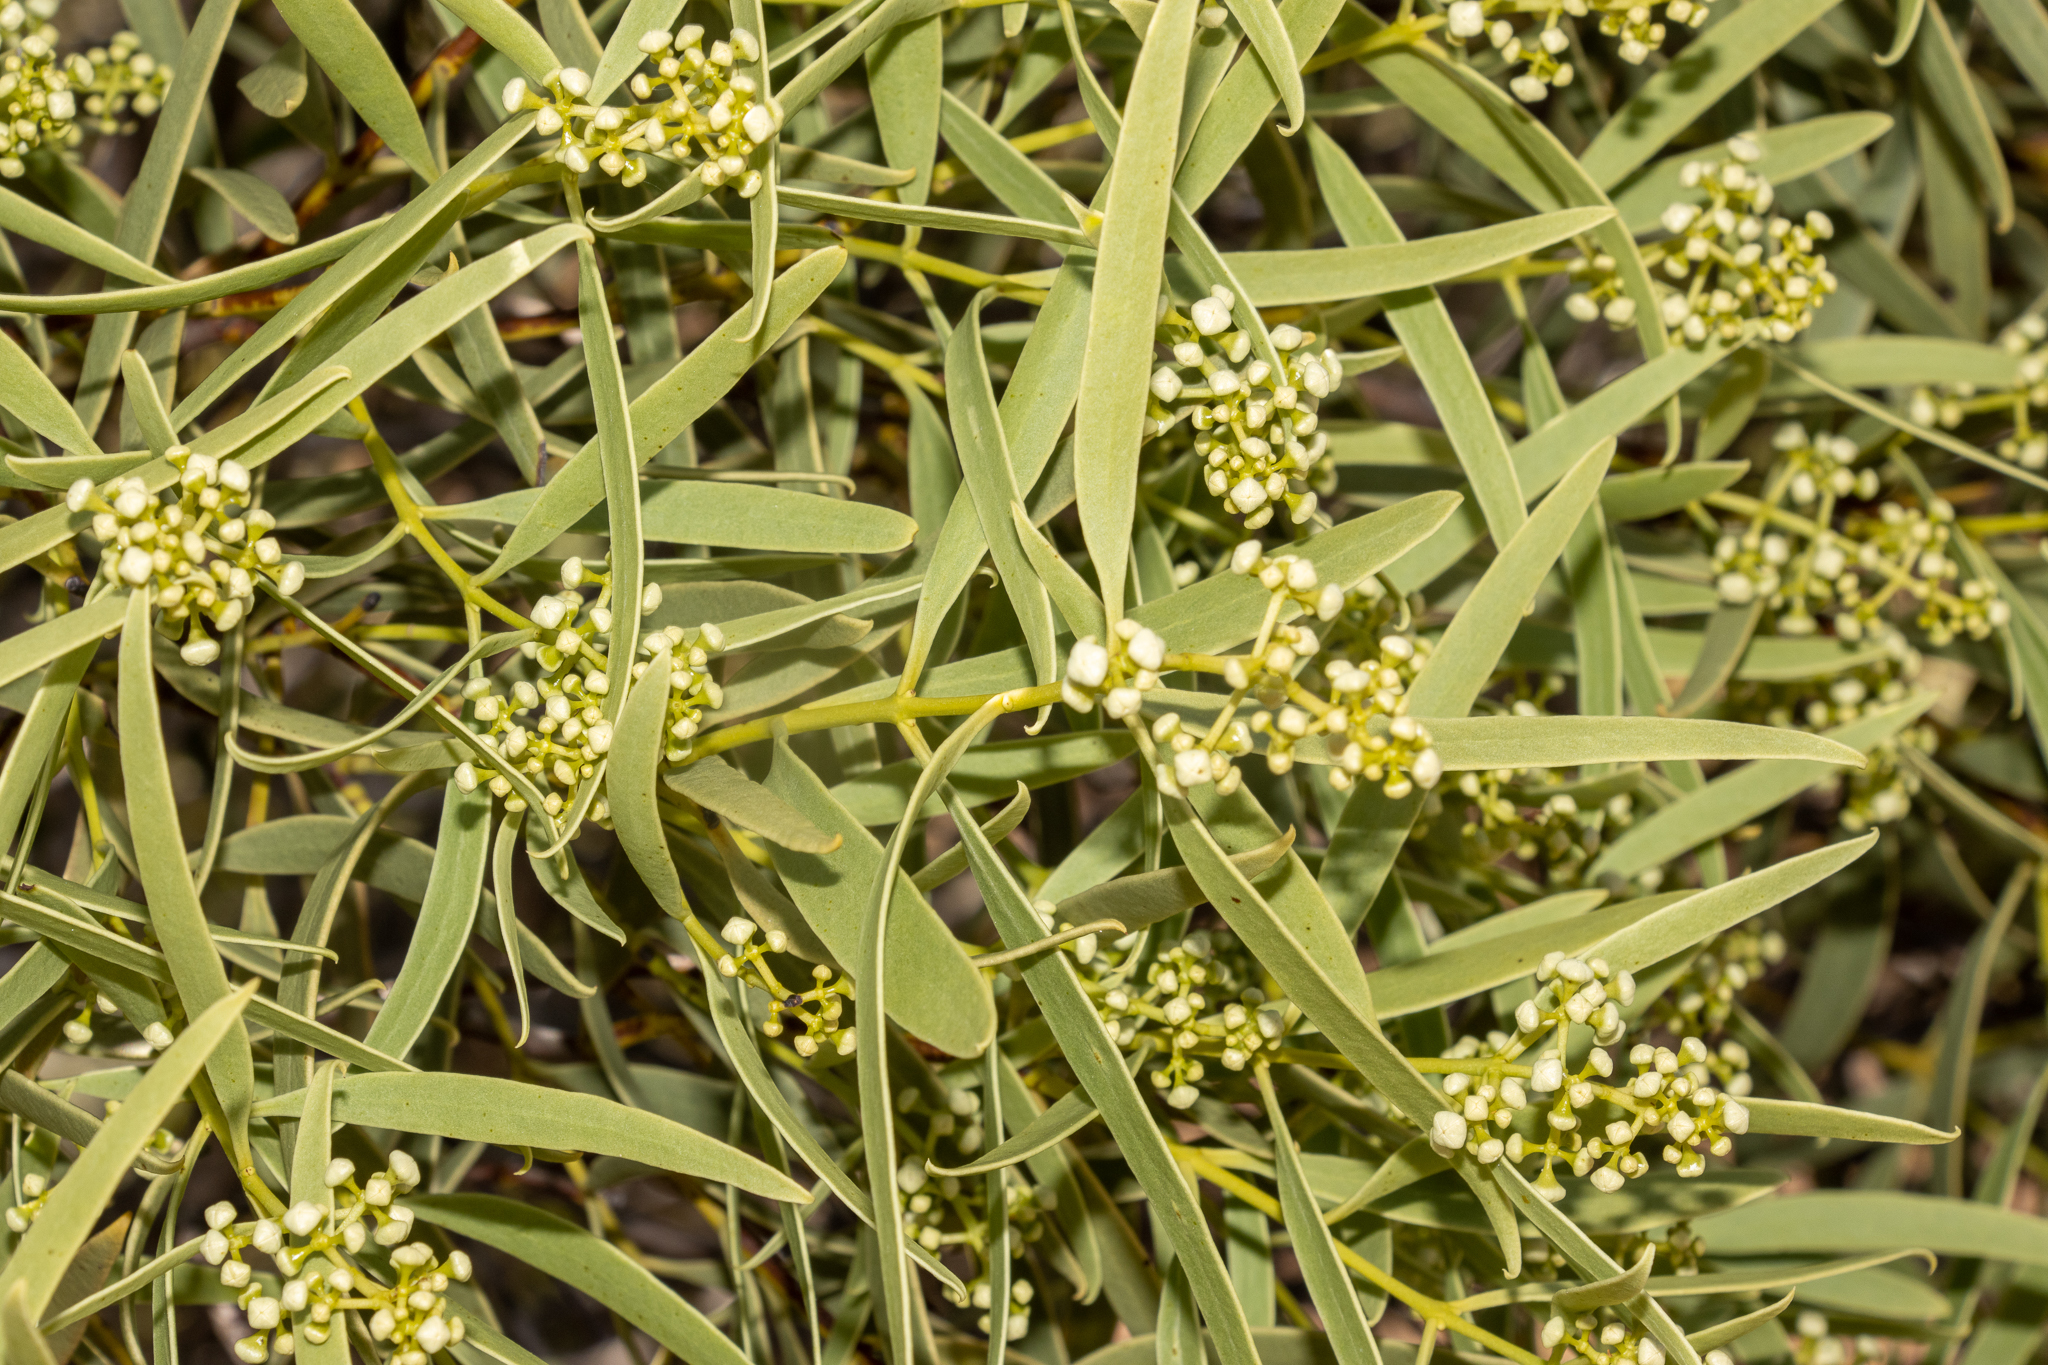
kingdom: Plantae
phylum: Tracheophyta
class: Magnoliopsida
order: Santalales
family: Santalaceae
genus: Santalum
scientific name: Santalum acuminatum
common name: Sweet quandong
